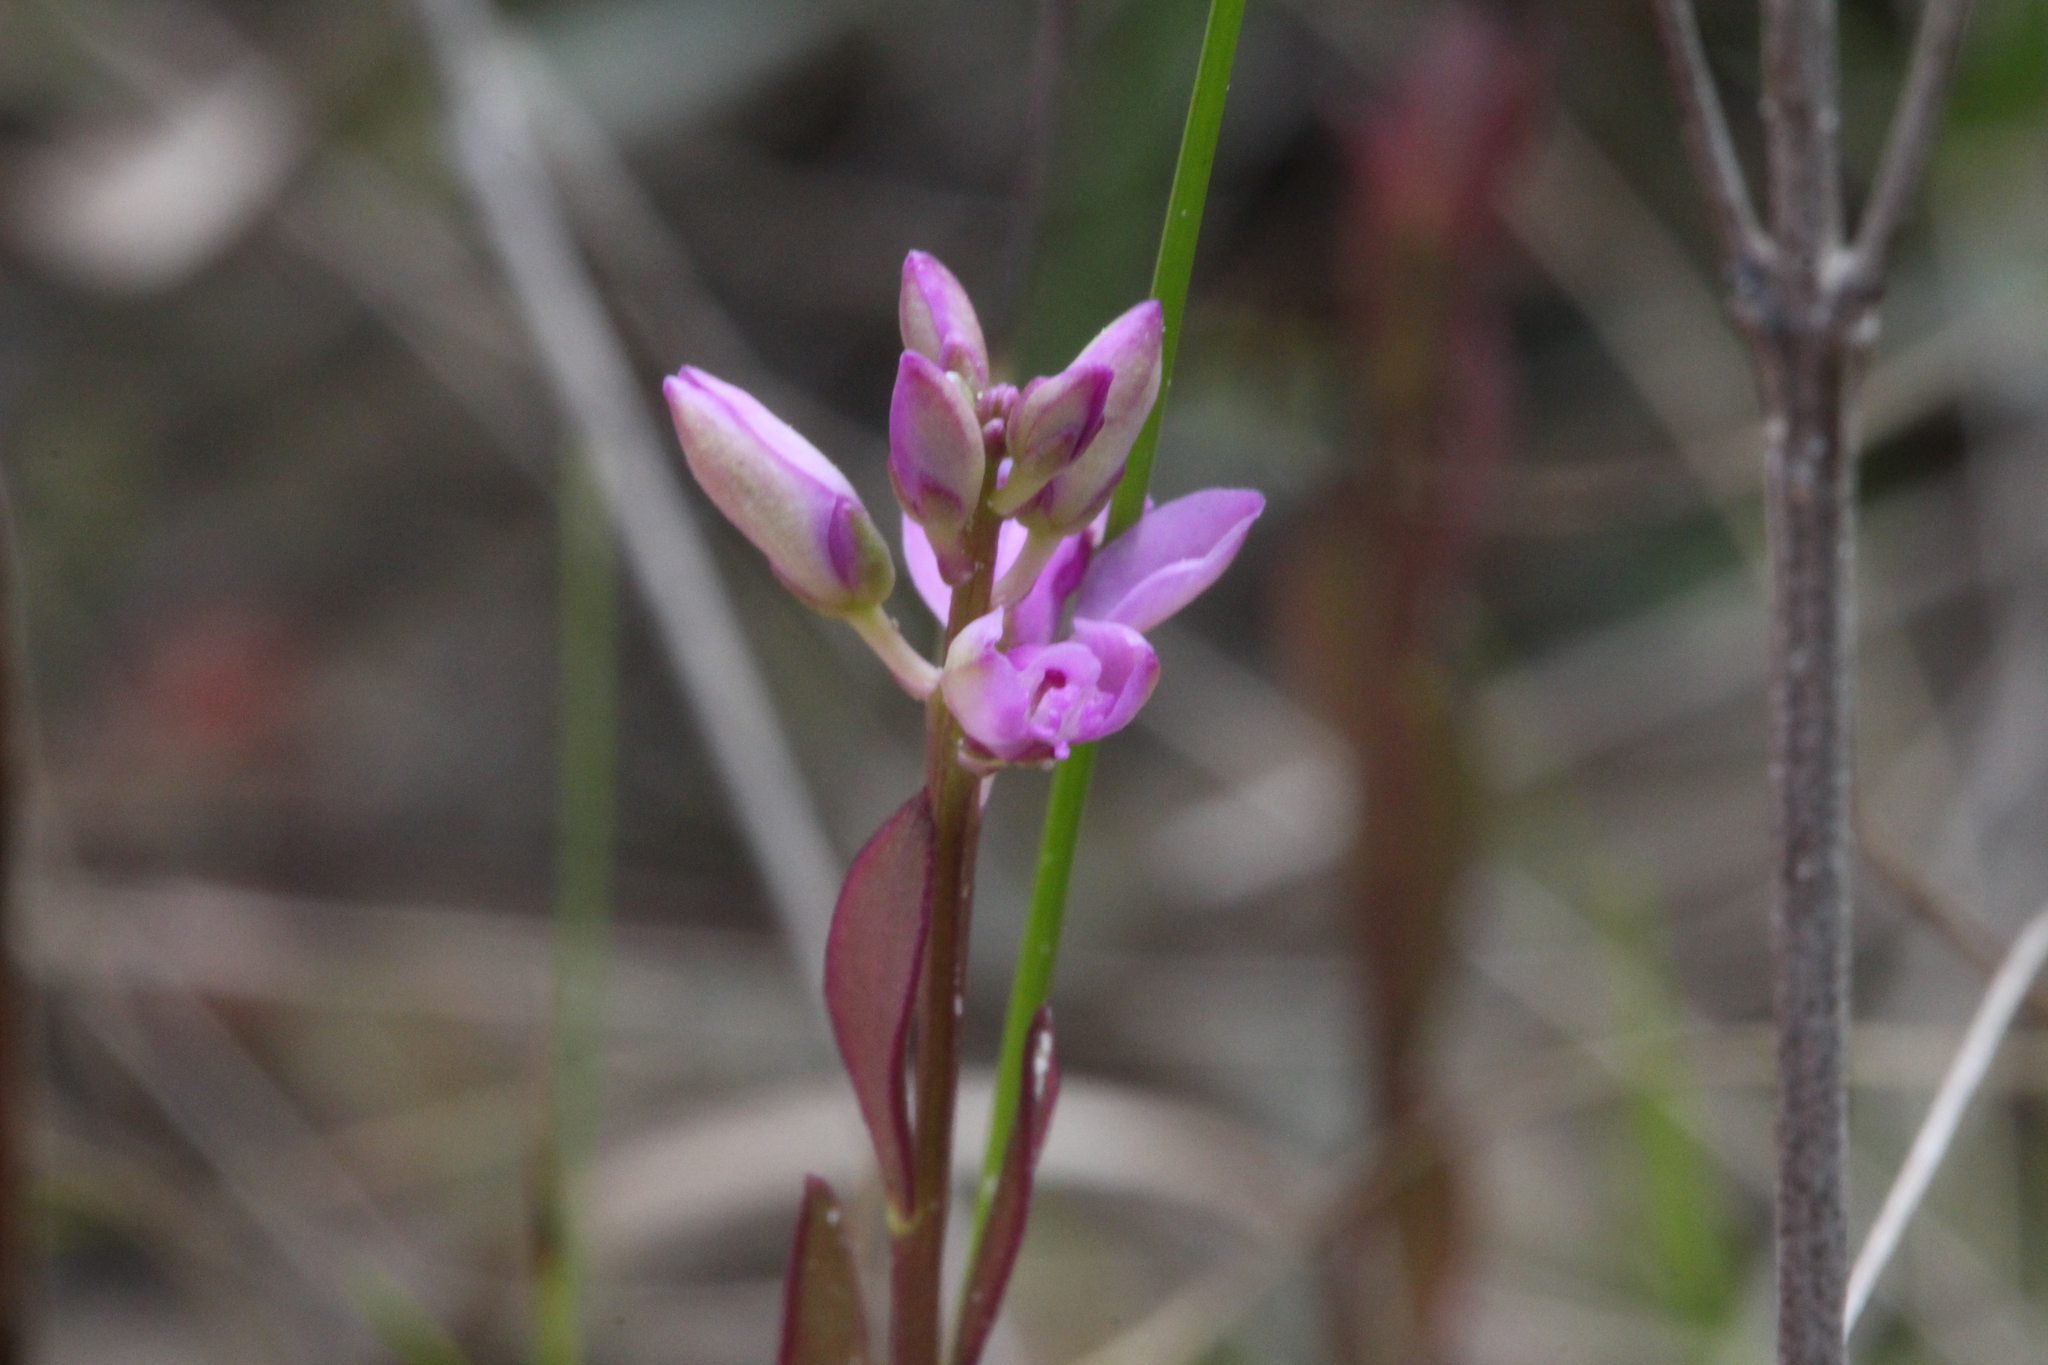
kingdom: Plantae
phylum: Tracheophyta
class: Magnoliopsida
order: Fabales
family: Polygalaceae
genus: Polygala
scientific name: Polygala crenata
